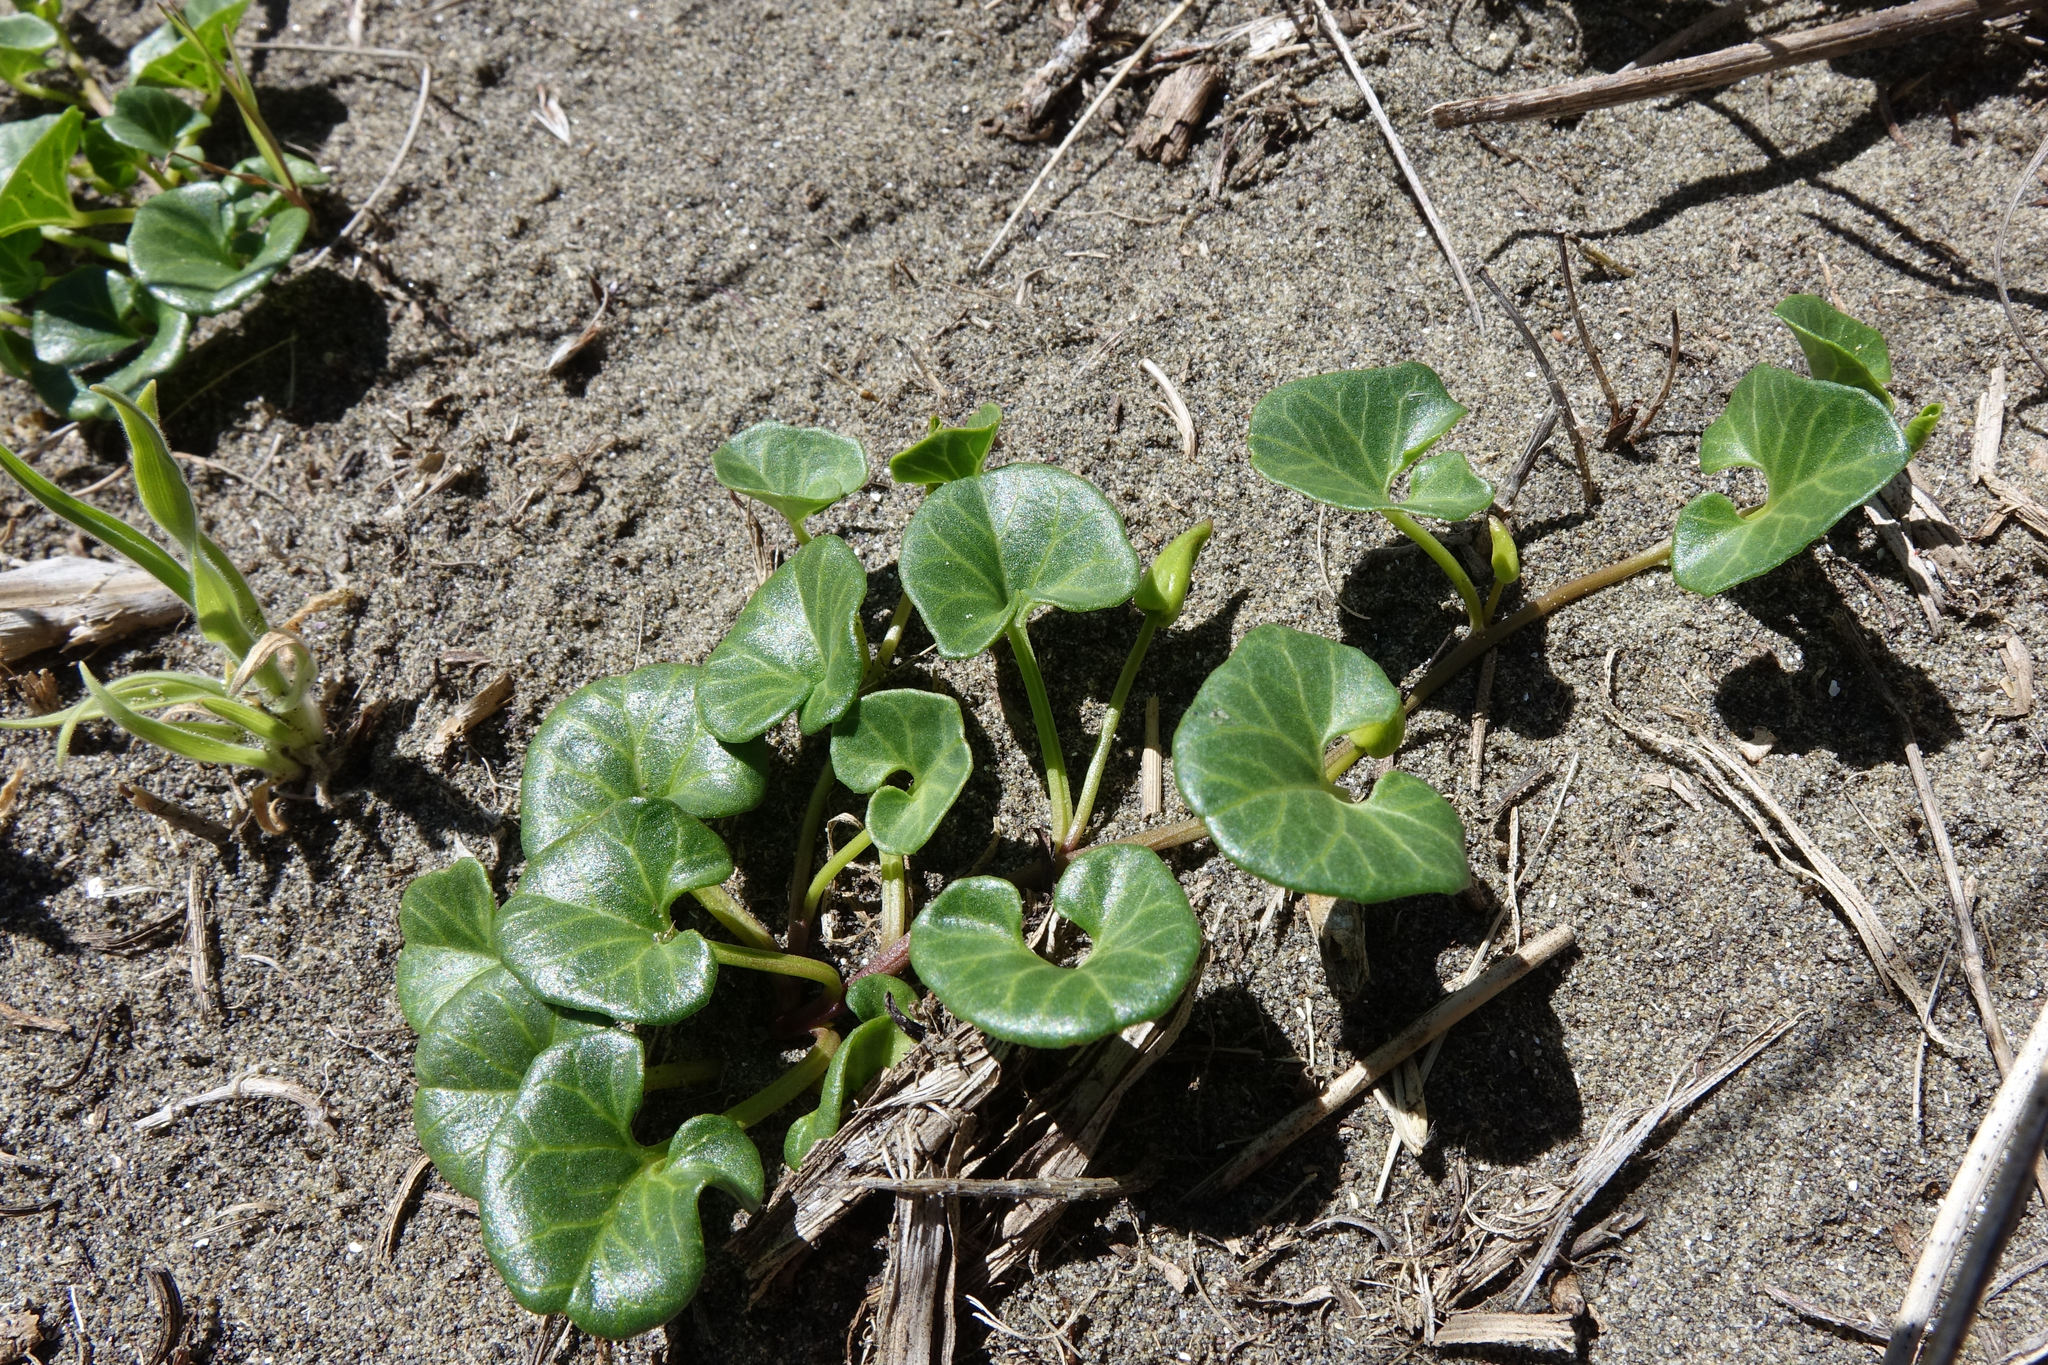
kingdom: Plantae
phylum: Tracheophyta
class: Magnoliopsida
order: Solanales
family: Convolvulaceae
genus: Calystegia
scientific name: Calystegia soldanella
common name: Sea bindweed
